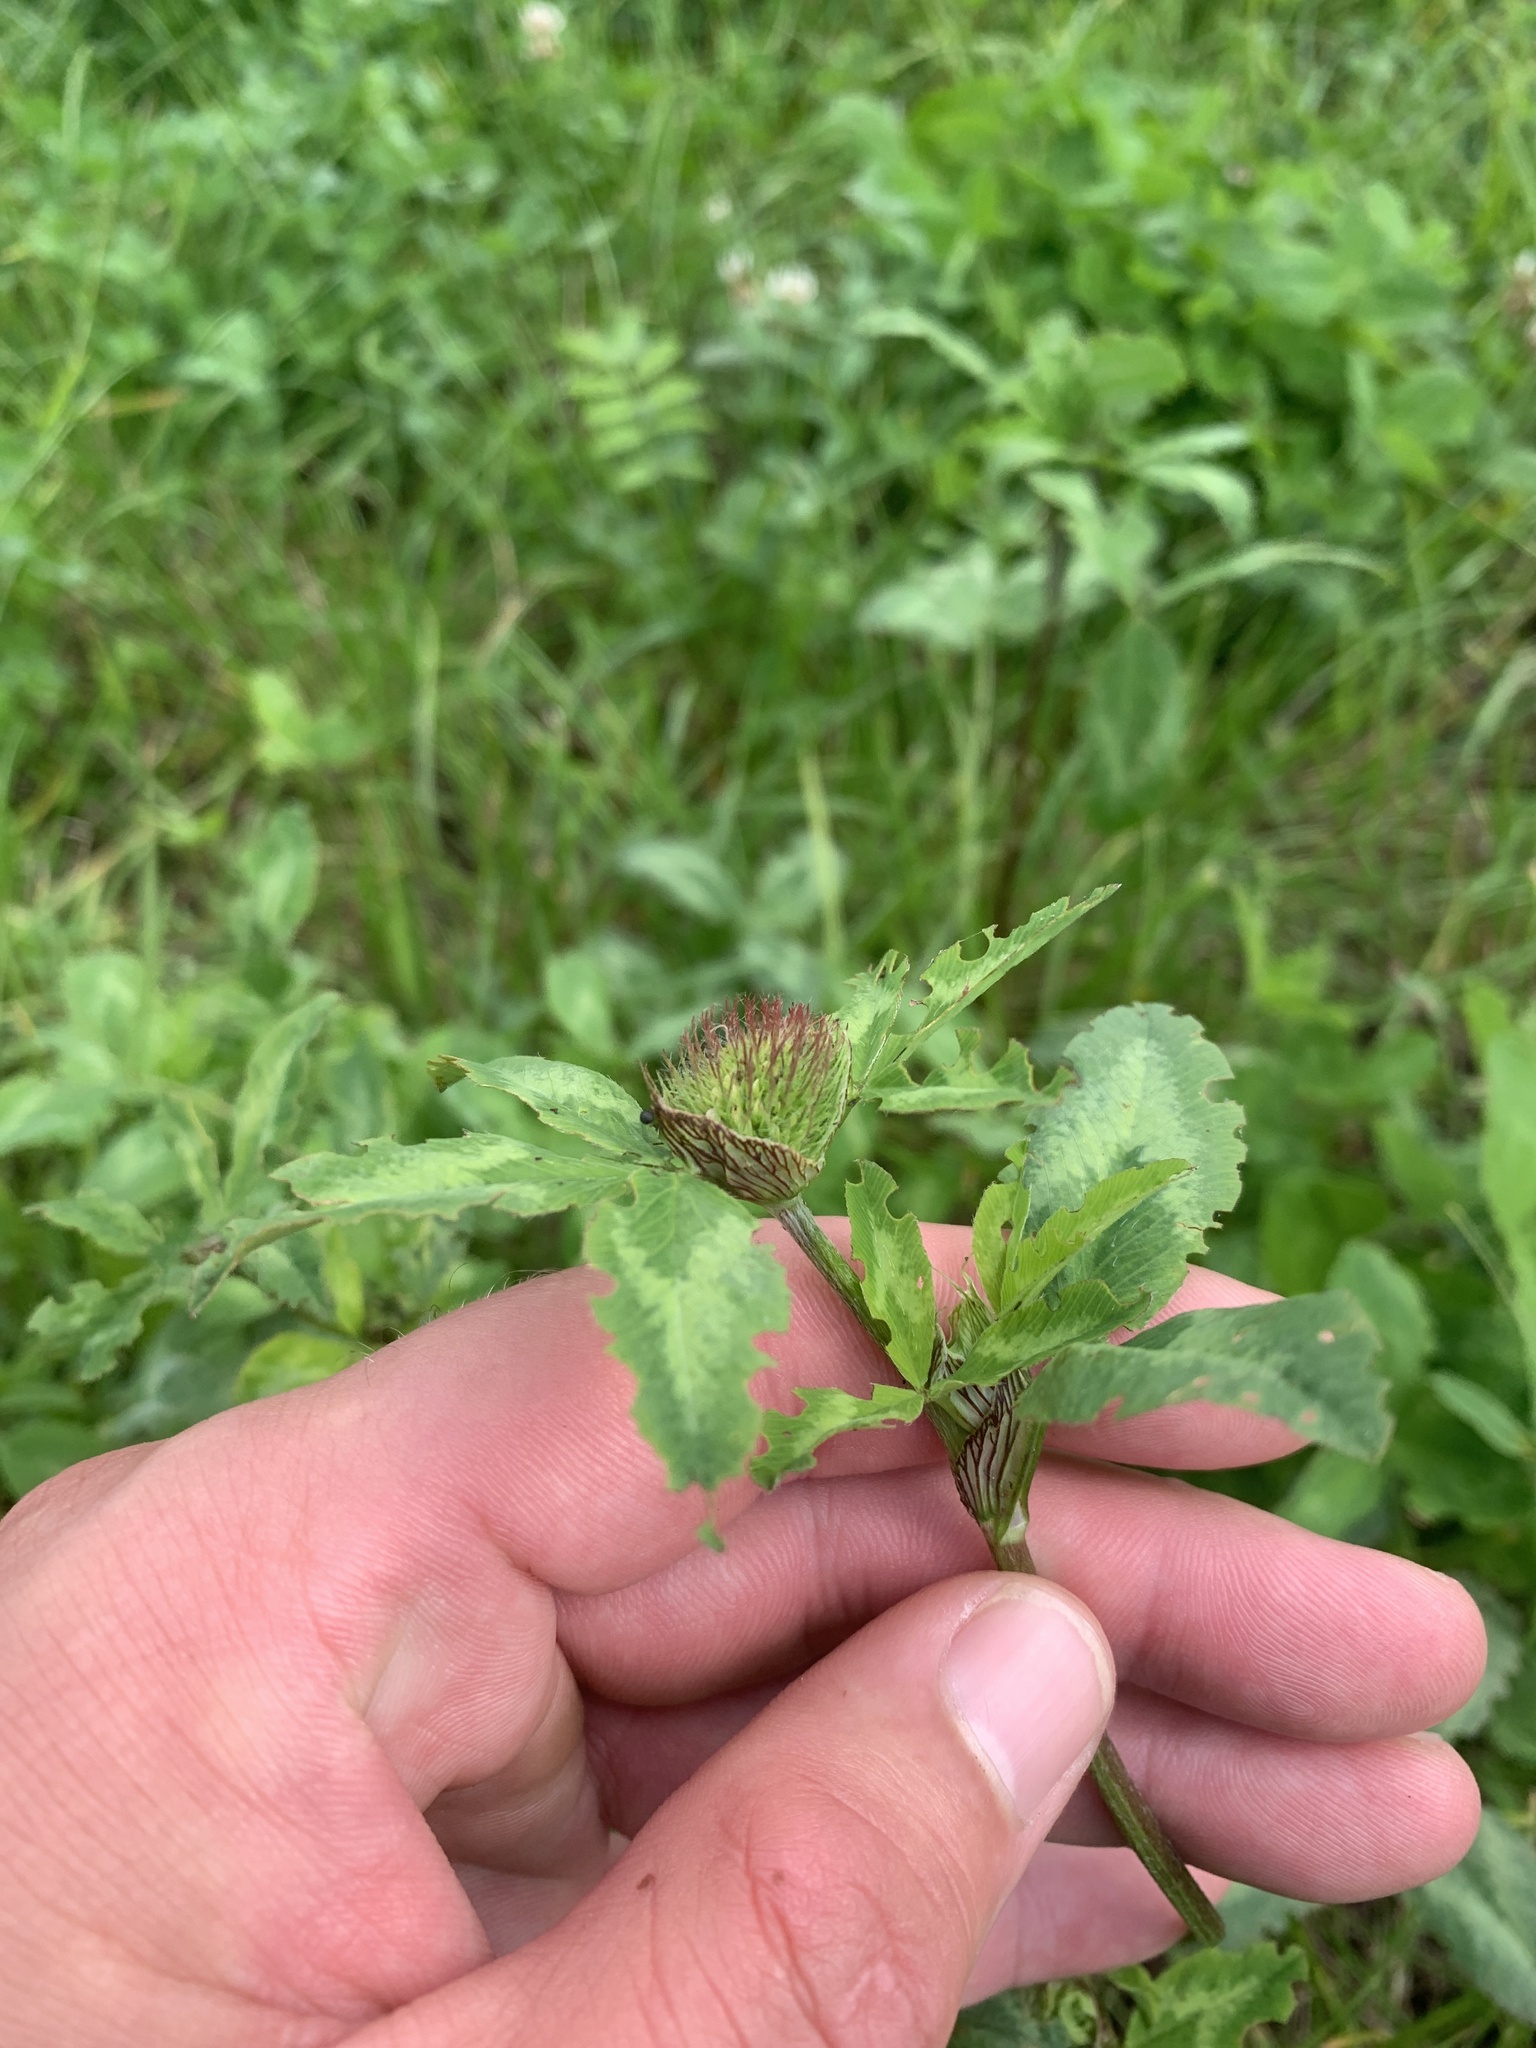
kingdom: Plantae
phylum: Tracheophyta
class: Magnoliopsida
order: Fabales
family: Fabaceae
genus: Trifolium
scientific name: Trifolium pratense
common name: Red clover
